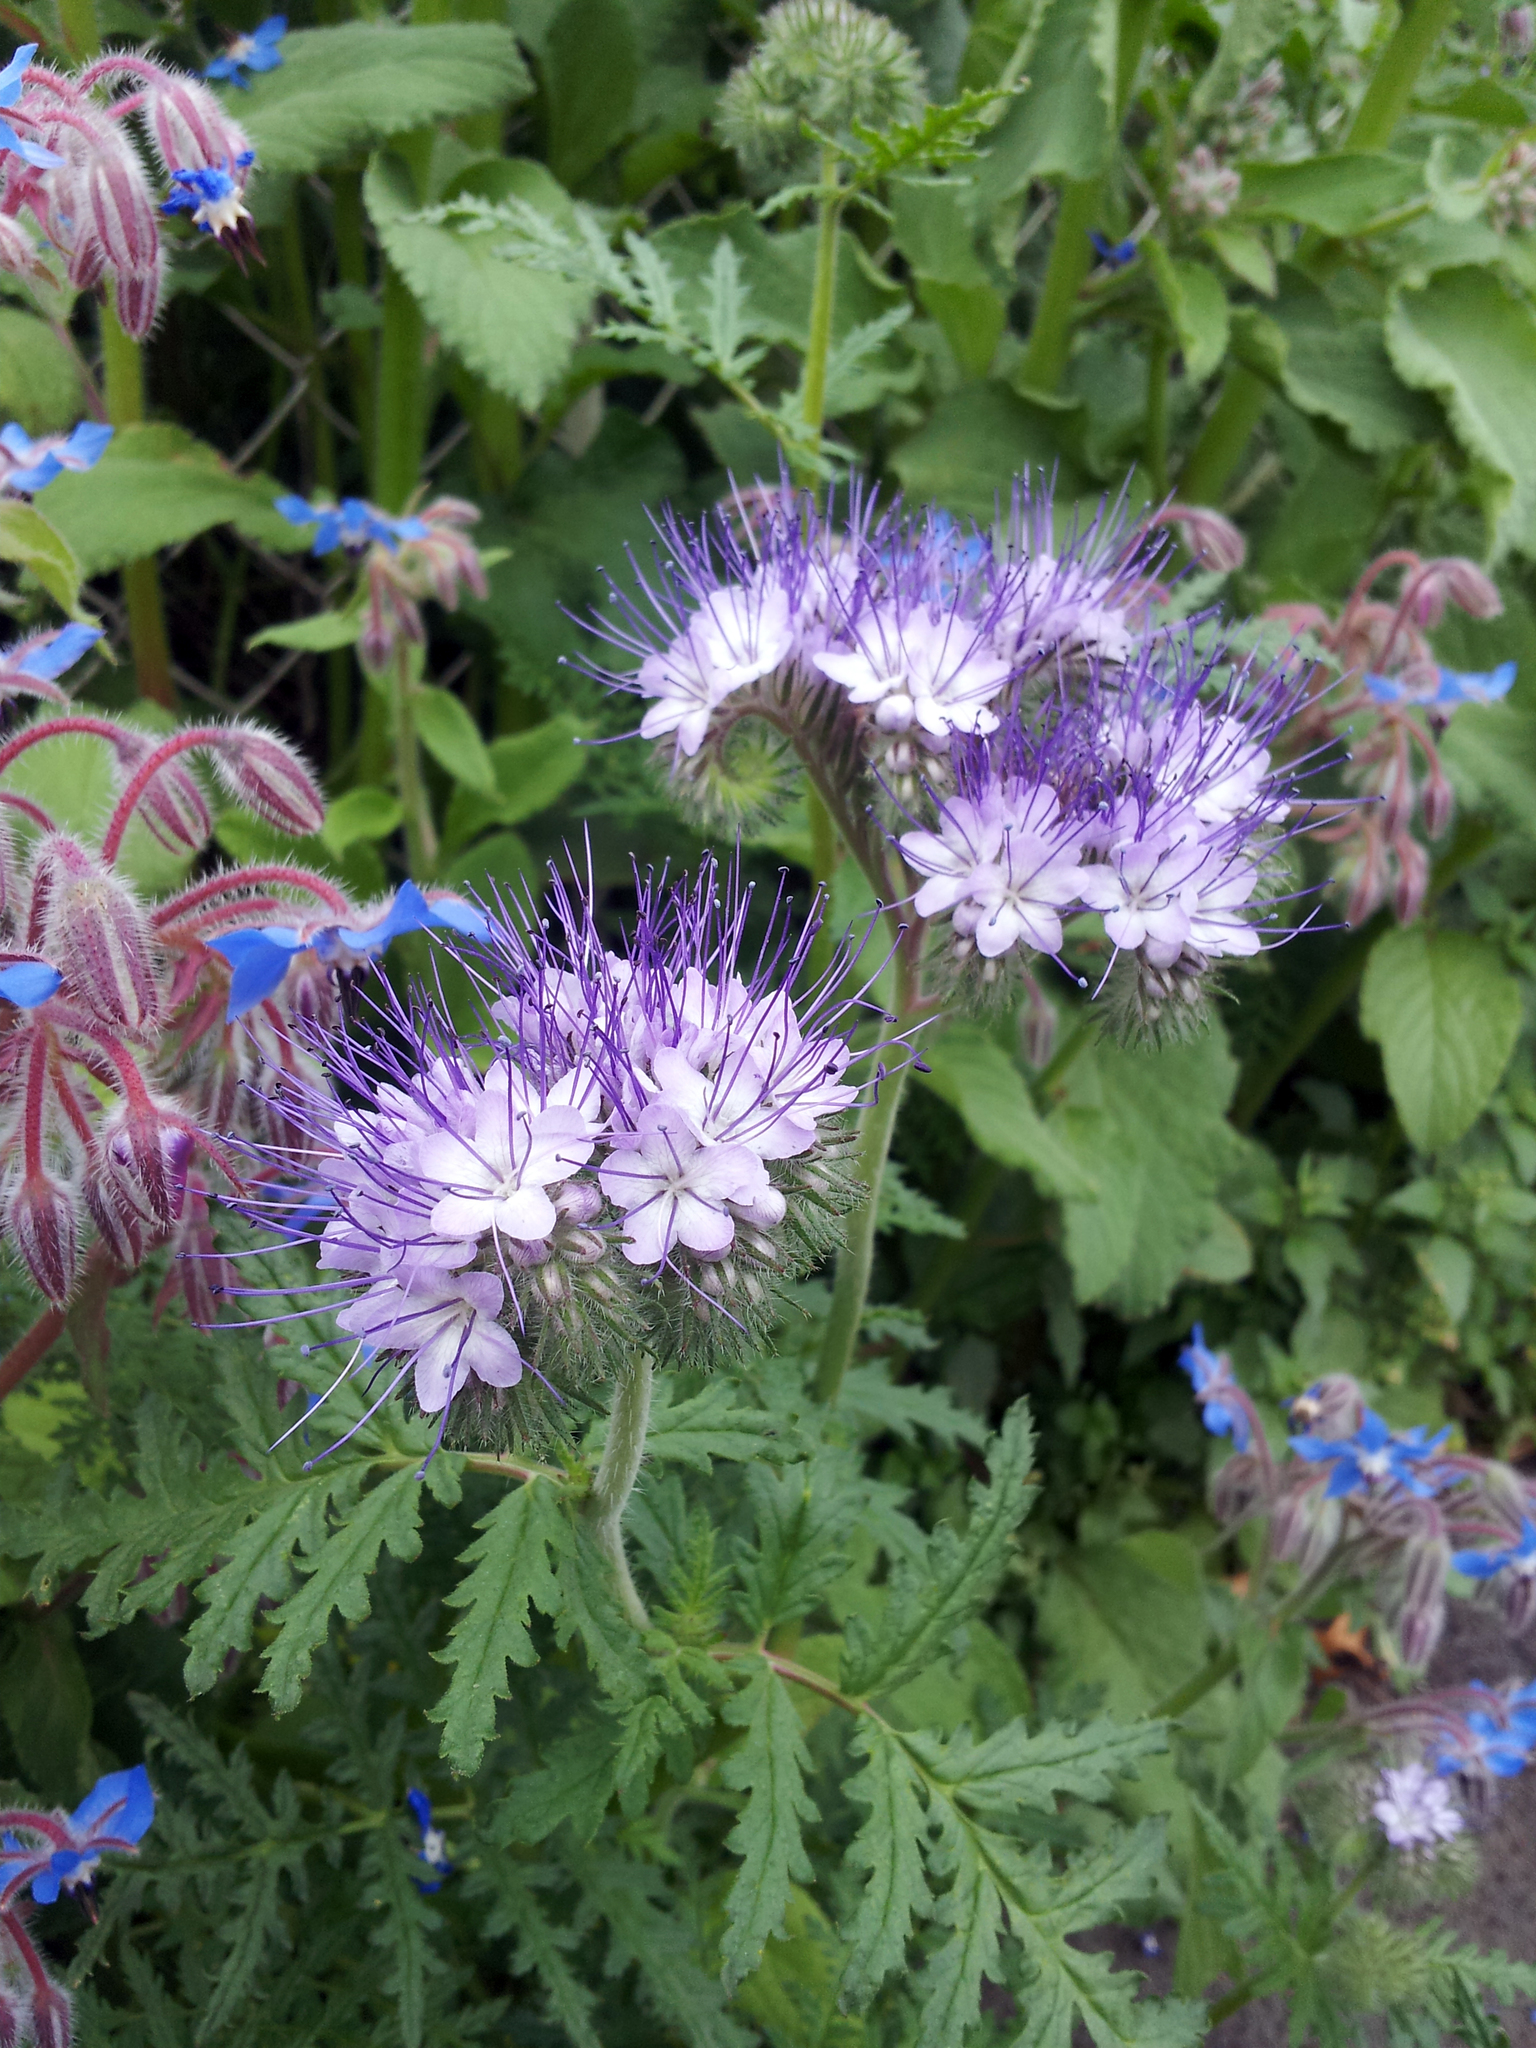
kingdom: Plantae
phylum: Tracheophyta
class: Magnoliopsida
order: Boraginales
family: Hydrophyllaceae
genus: Phacelia
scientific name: Phacelia tanacetifolia
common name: Phacelia
